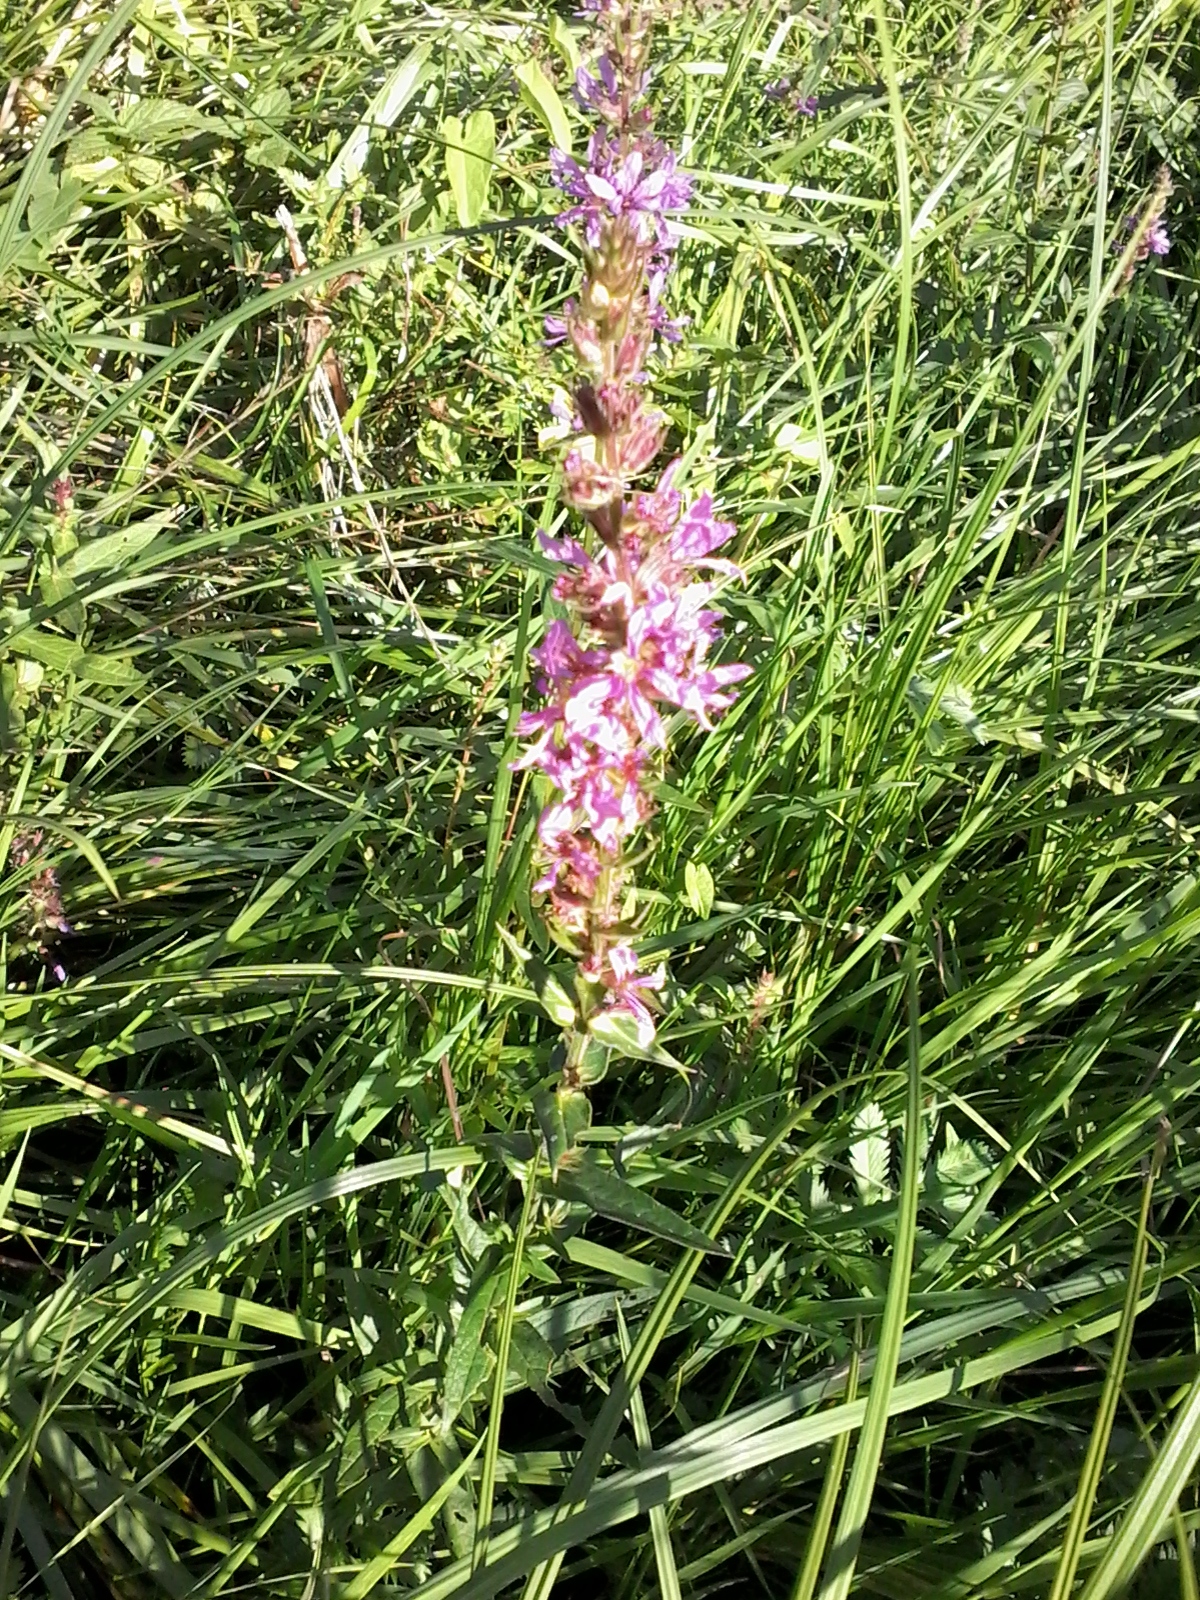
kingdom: Plantae
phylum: Tracheophyta
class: Magnoliopsida
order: Myrtales
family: Lythraceae
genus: Lythrum
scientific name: Lythrum salicaria
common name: Purple loosestrife
